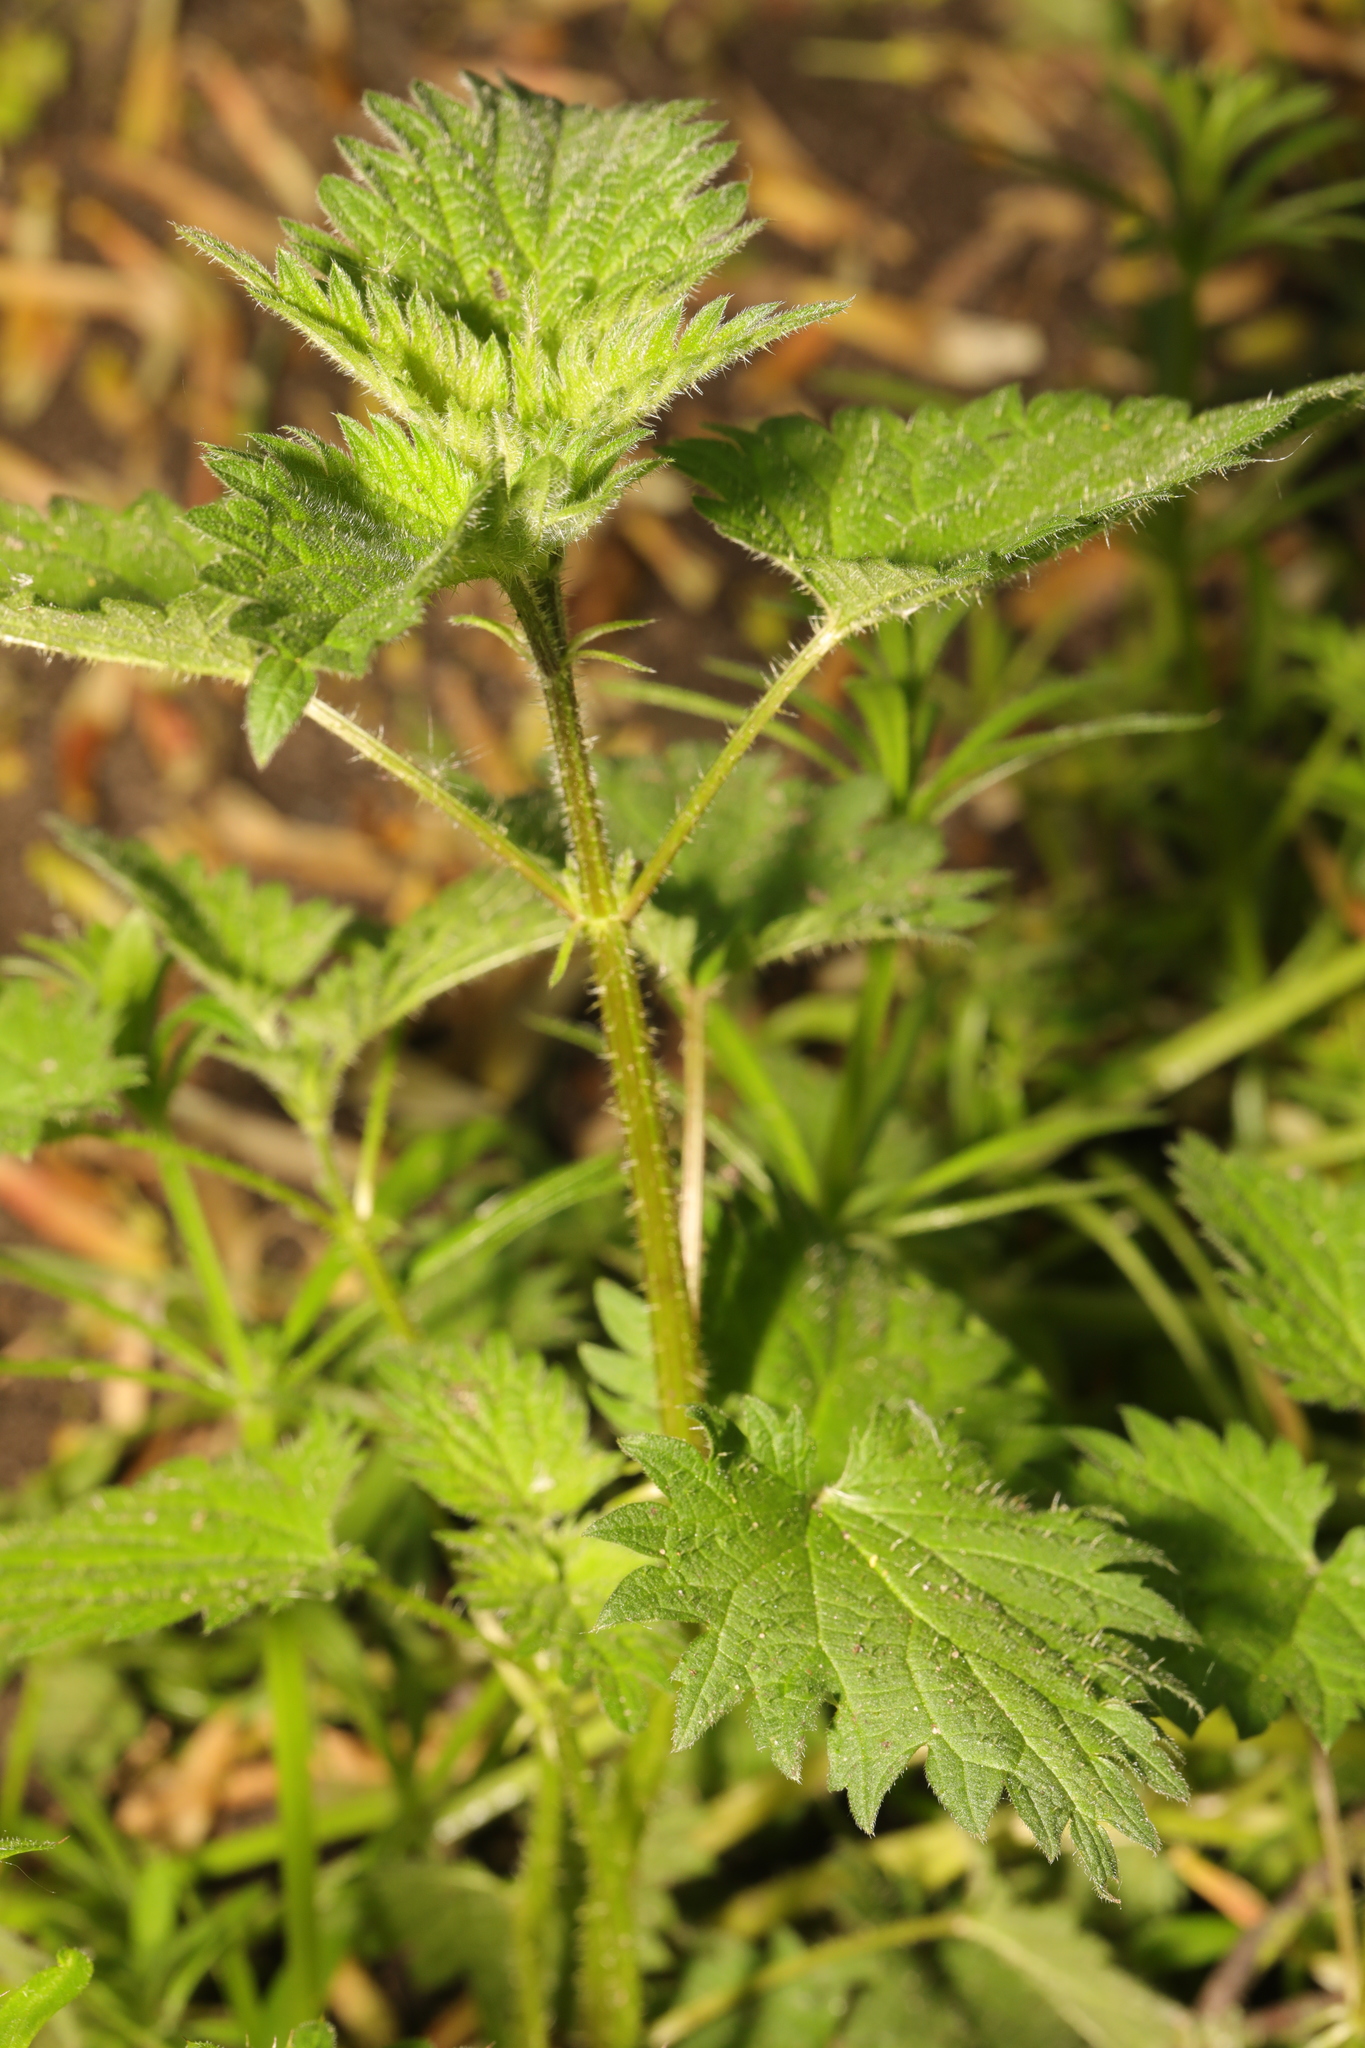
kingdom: Plantae
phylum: Tracheophyta
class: Magnoliopsida
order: Rosales
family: Urticaceae
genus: Urtica
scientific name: Urtica dioica
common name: Common nettle
